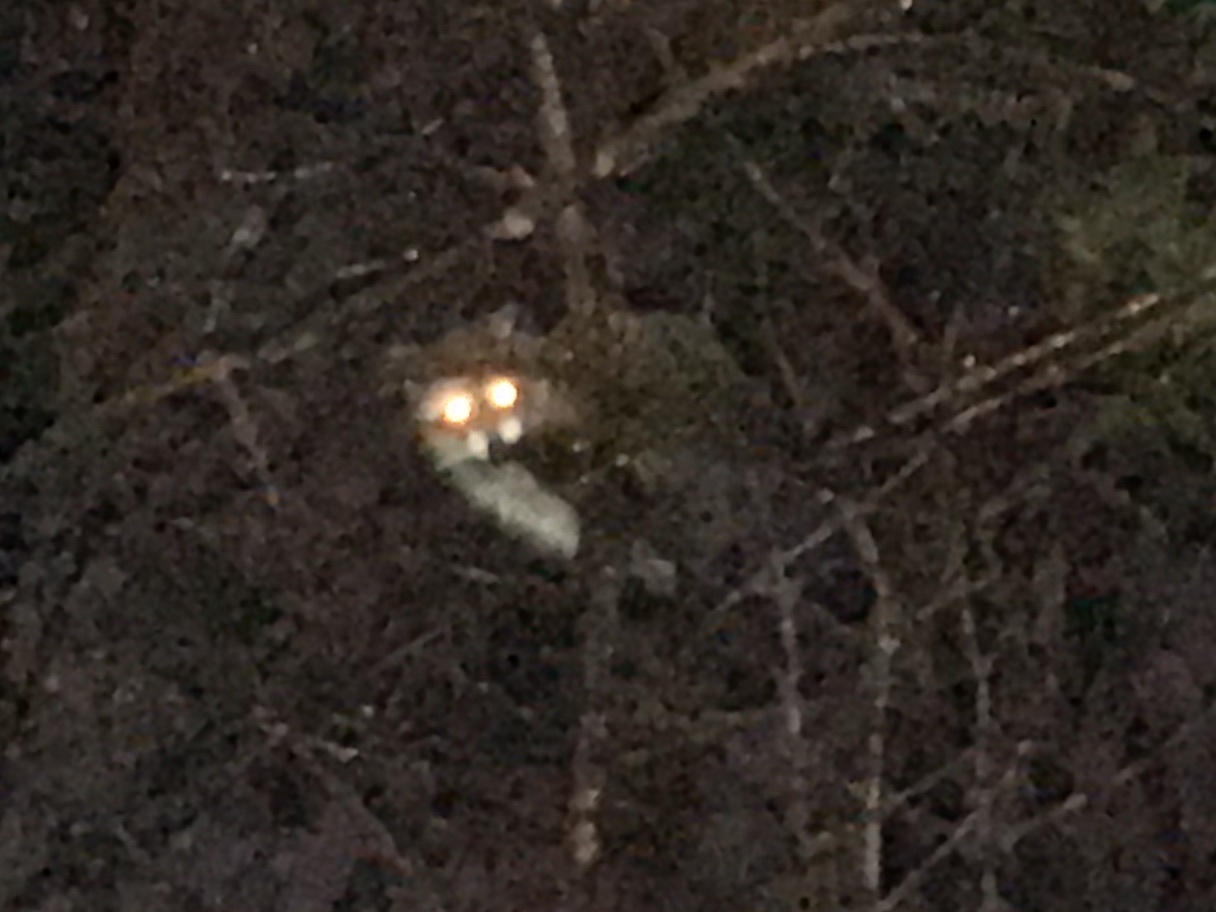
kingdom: Animalia
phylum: Chordata
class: Mammalia
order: Carnivora
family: Procyonidae
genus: Procyon
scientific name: Procyon lotor
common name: Raccoon
